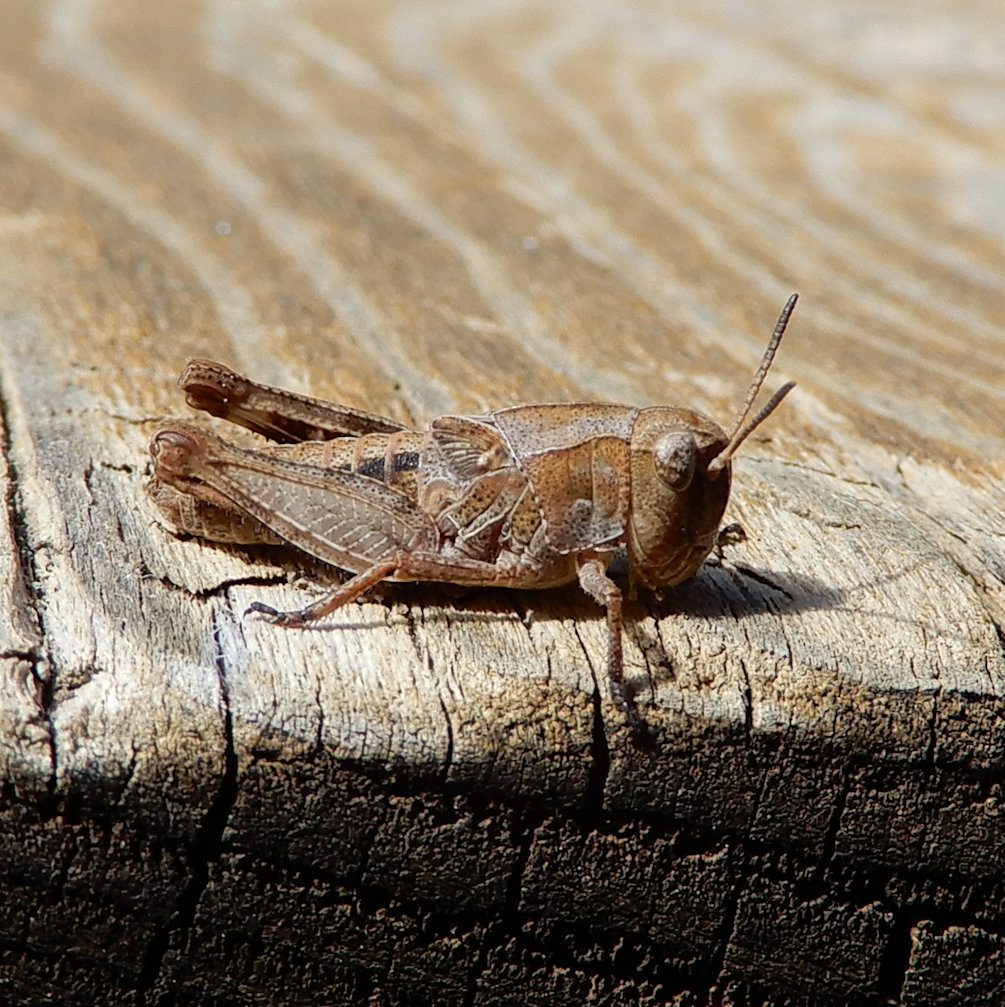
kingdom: Animalia
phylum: Arthropoda
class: Insecta
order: Orthoptera
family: Acrididae
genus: Camnula
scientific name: Camnula pellucida
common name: Clear-winged grasshopper
